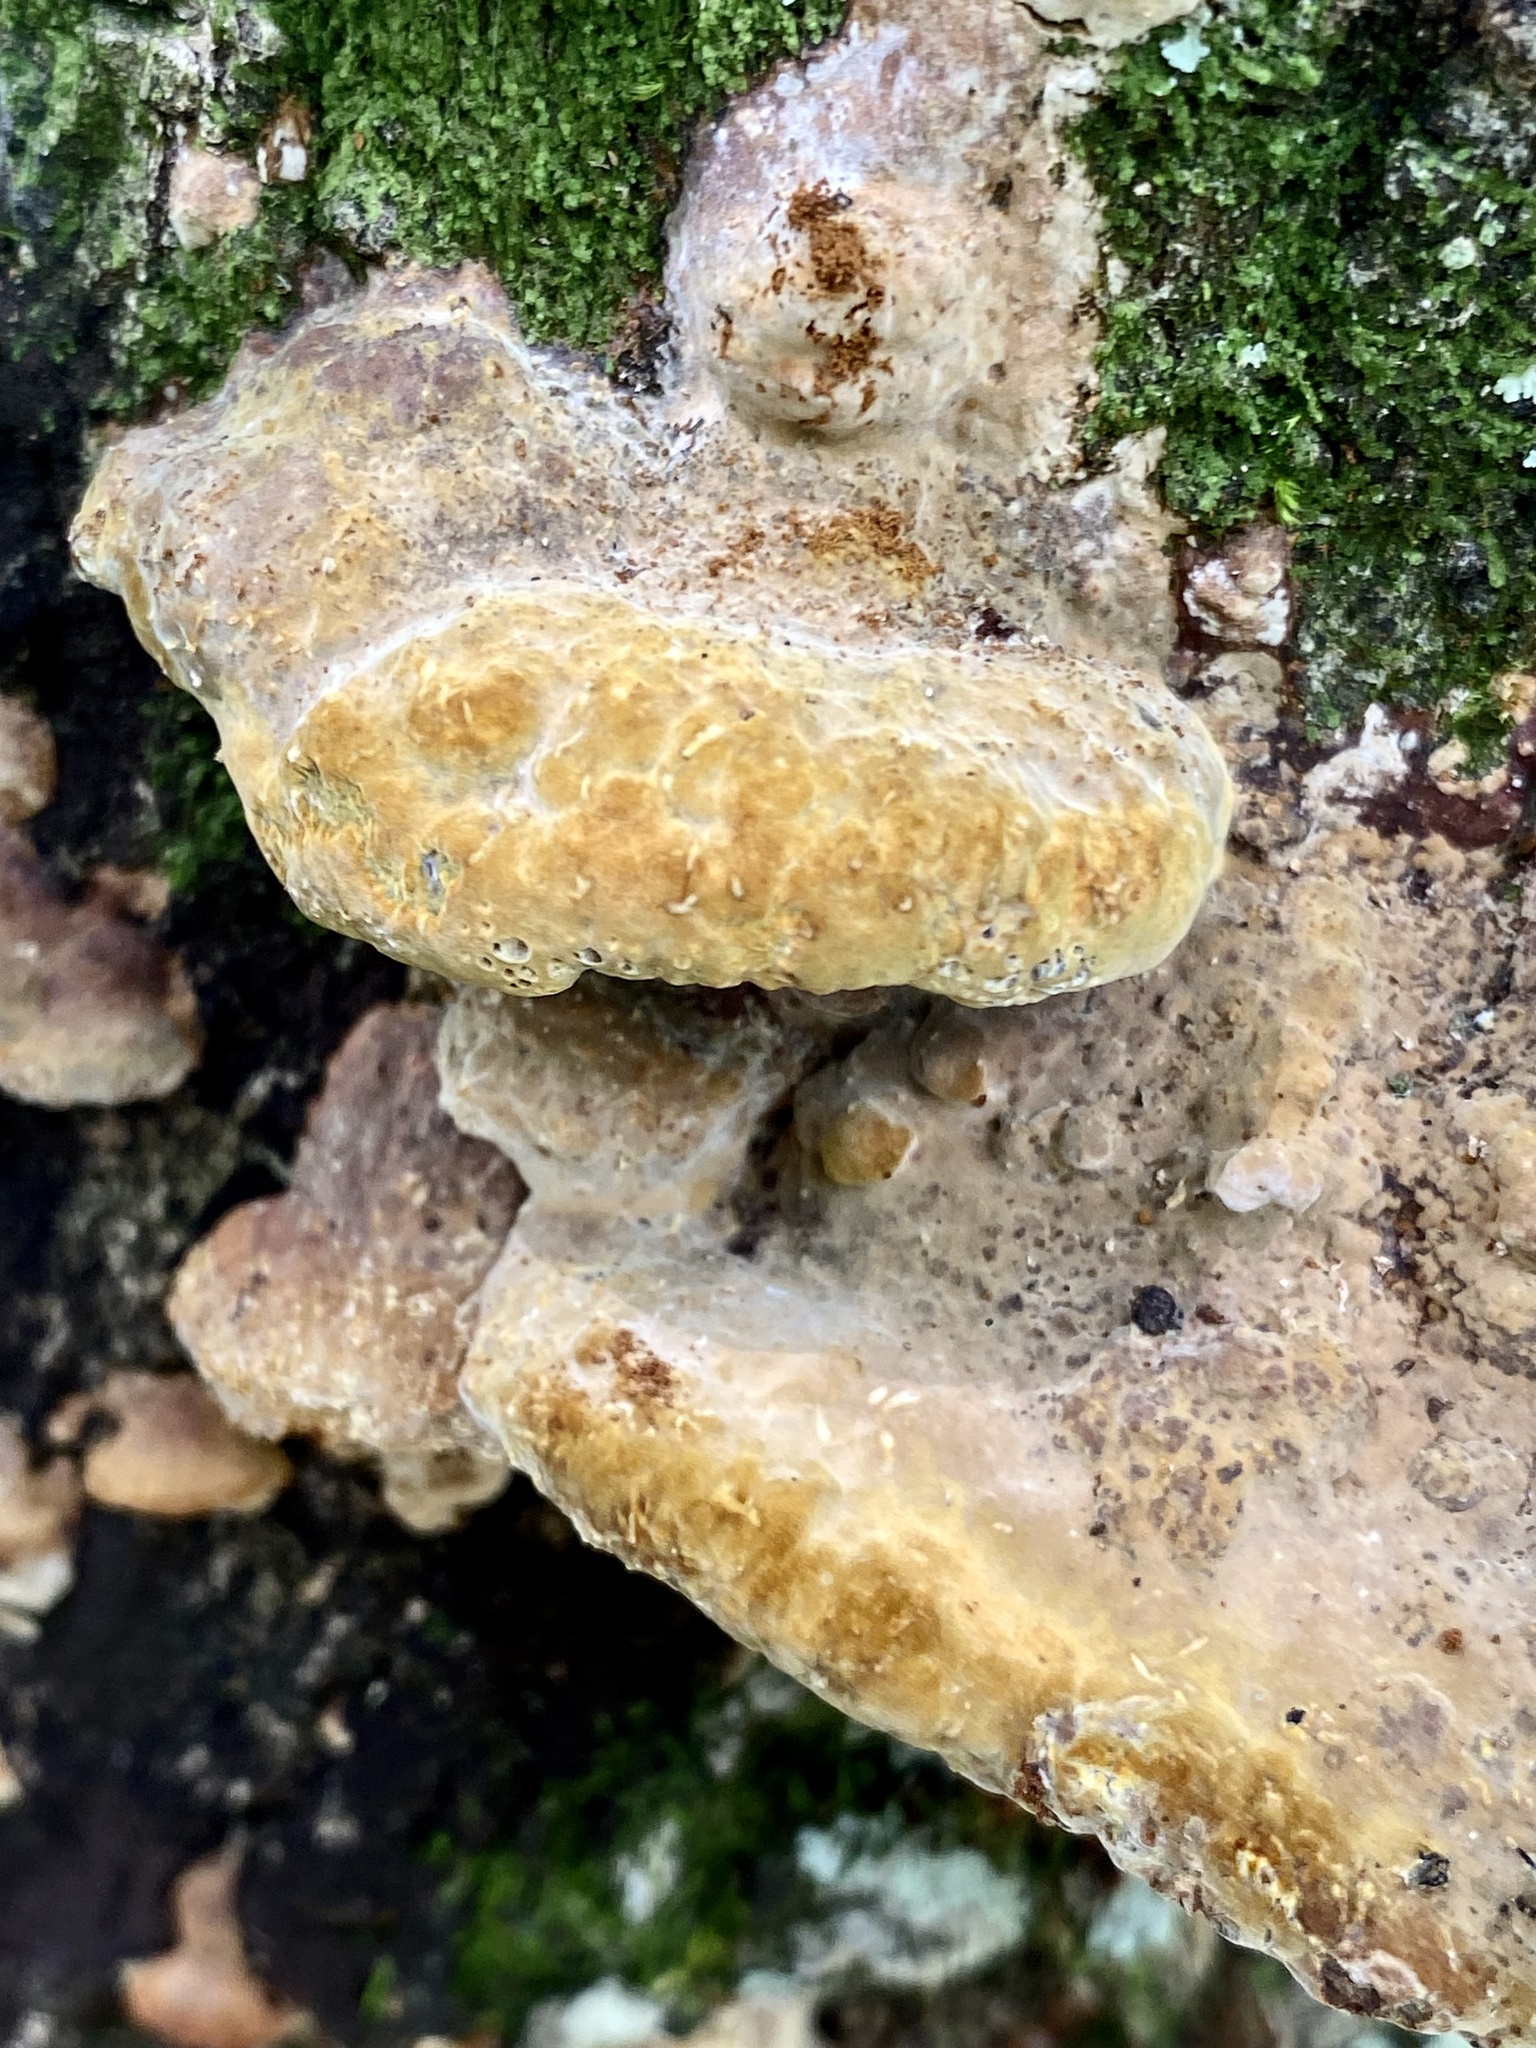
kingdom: Fungi
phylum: Basidiomycota
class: Agaricomycetes
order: Hymenochaetales
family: Hymenochaetaceae
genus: Phellinus
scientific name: Phellinus gilvus
